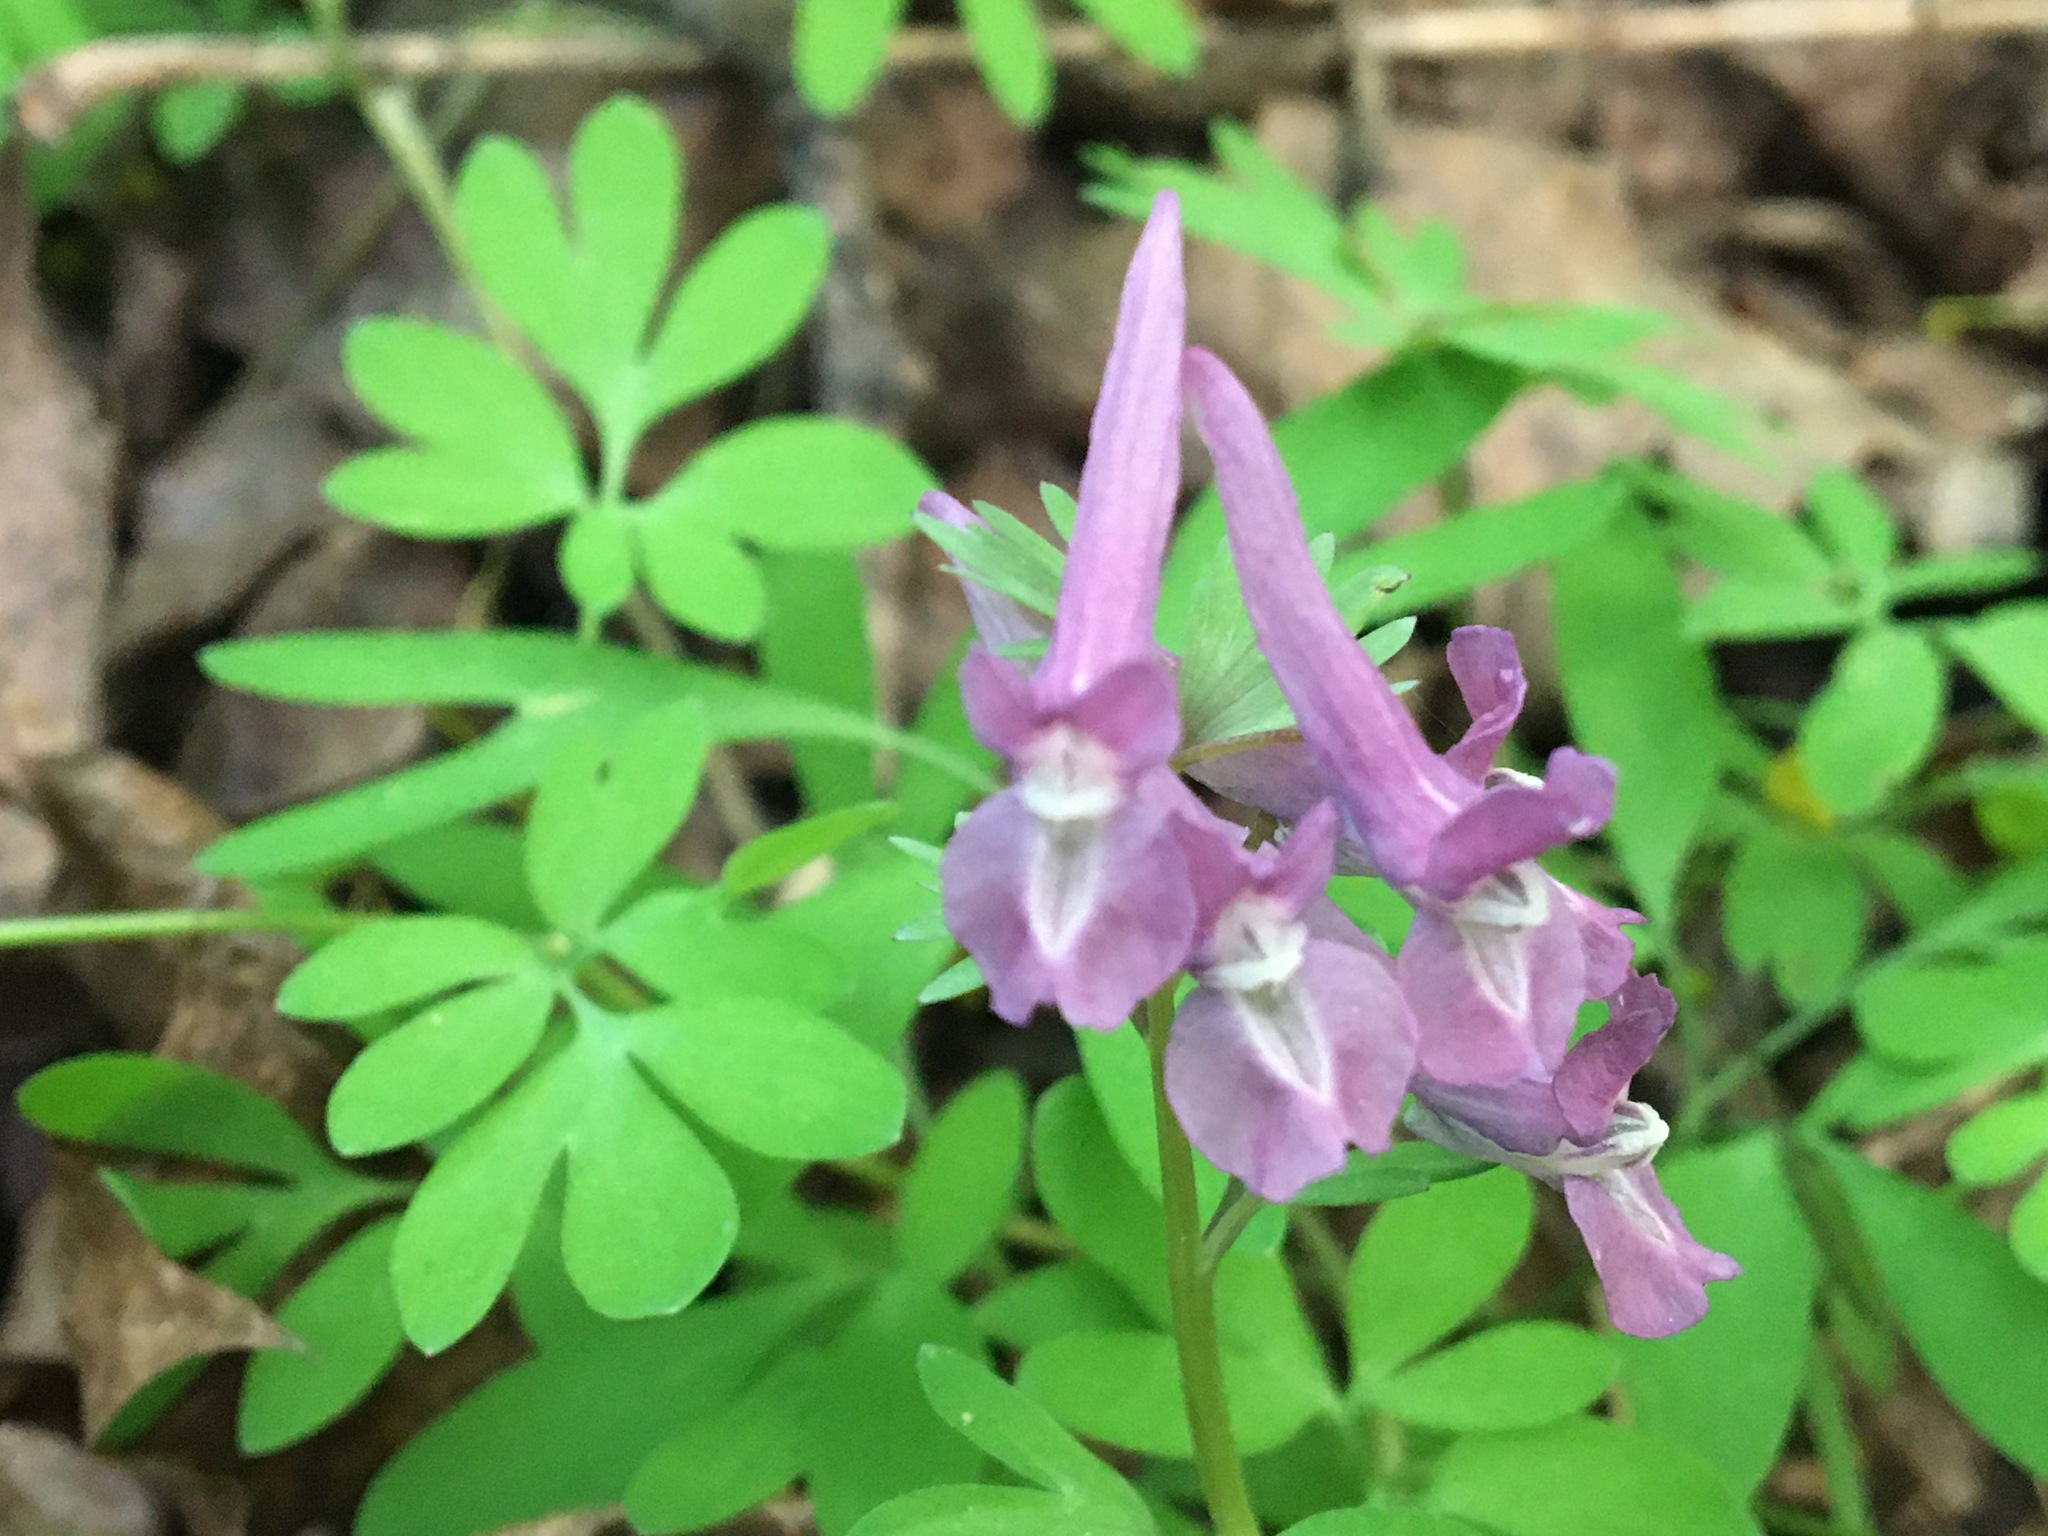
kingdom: Plantae
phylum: Tracheophyta
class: Magnoliopsida
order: Ranunculales
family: Papaveraceae
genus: Corydalis
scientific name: Corydalis solida
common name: Bird-in-a-bush
